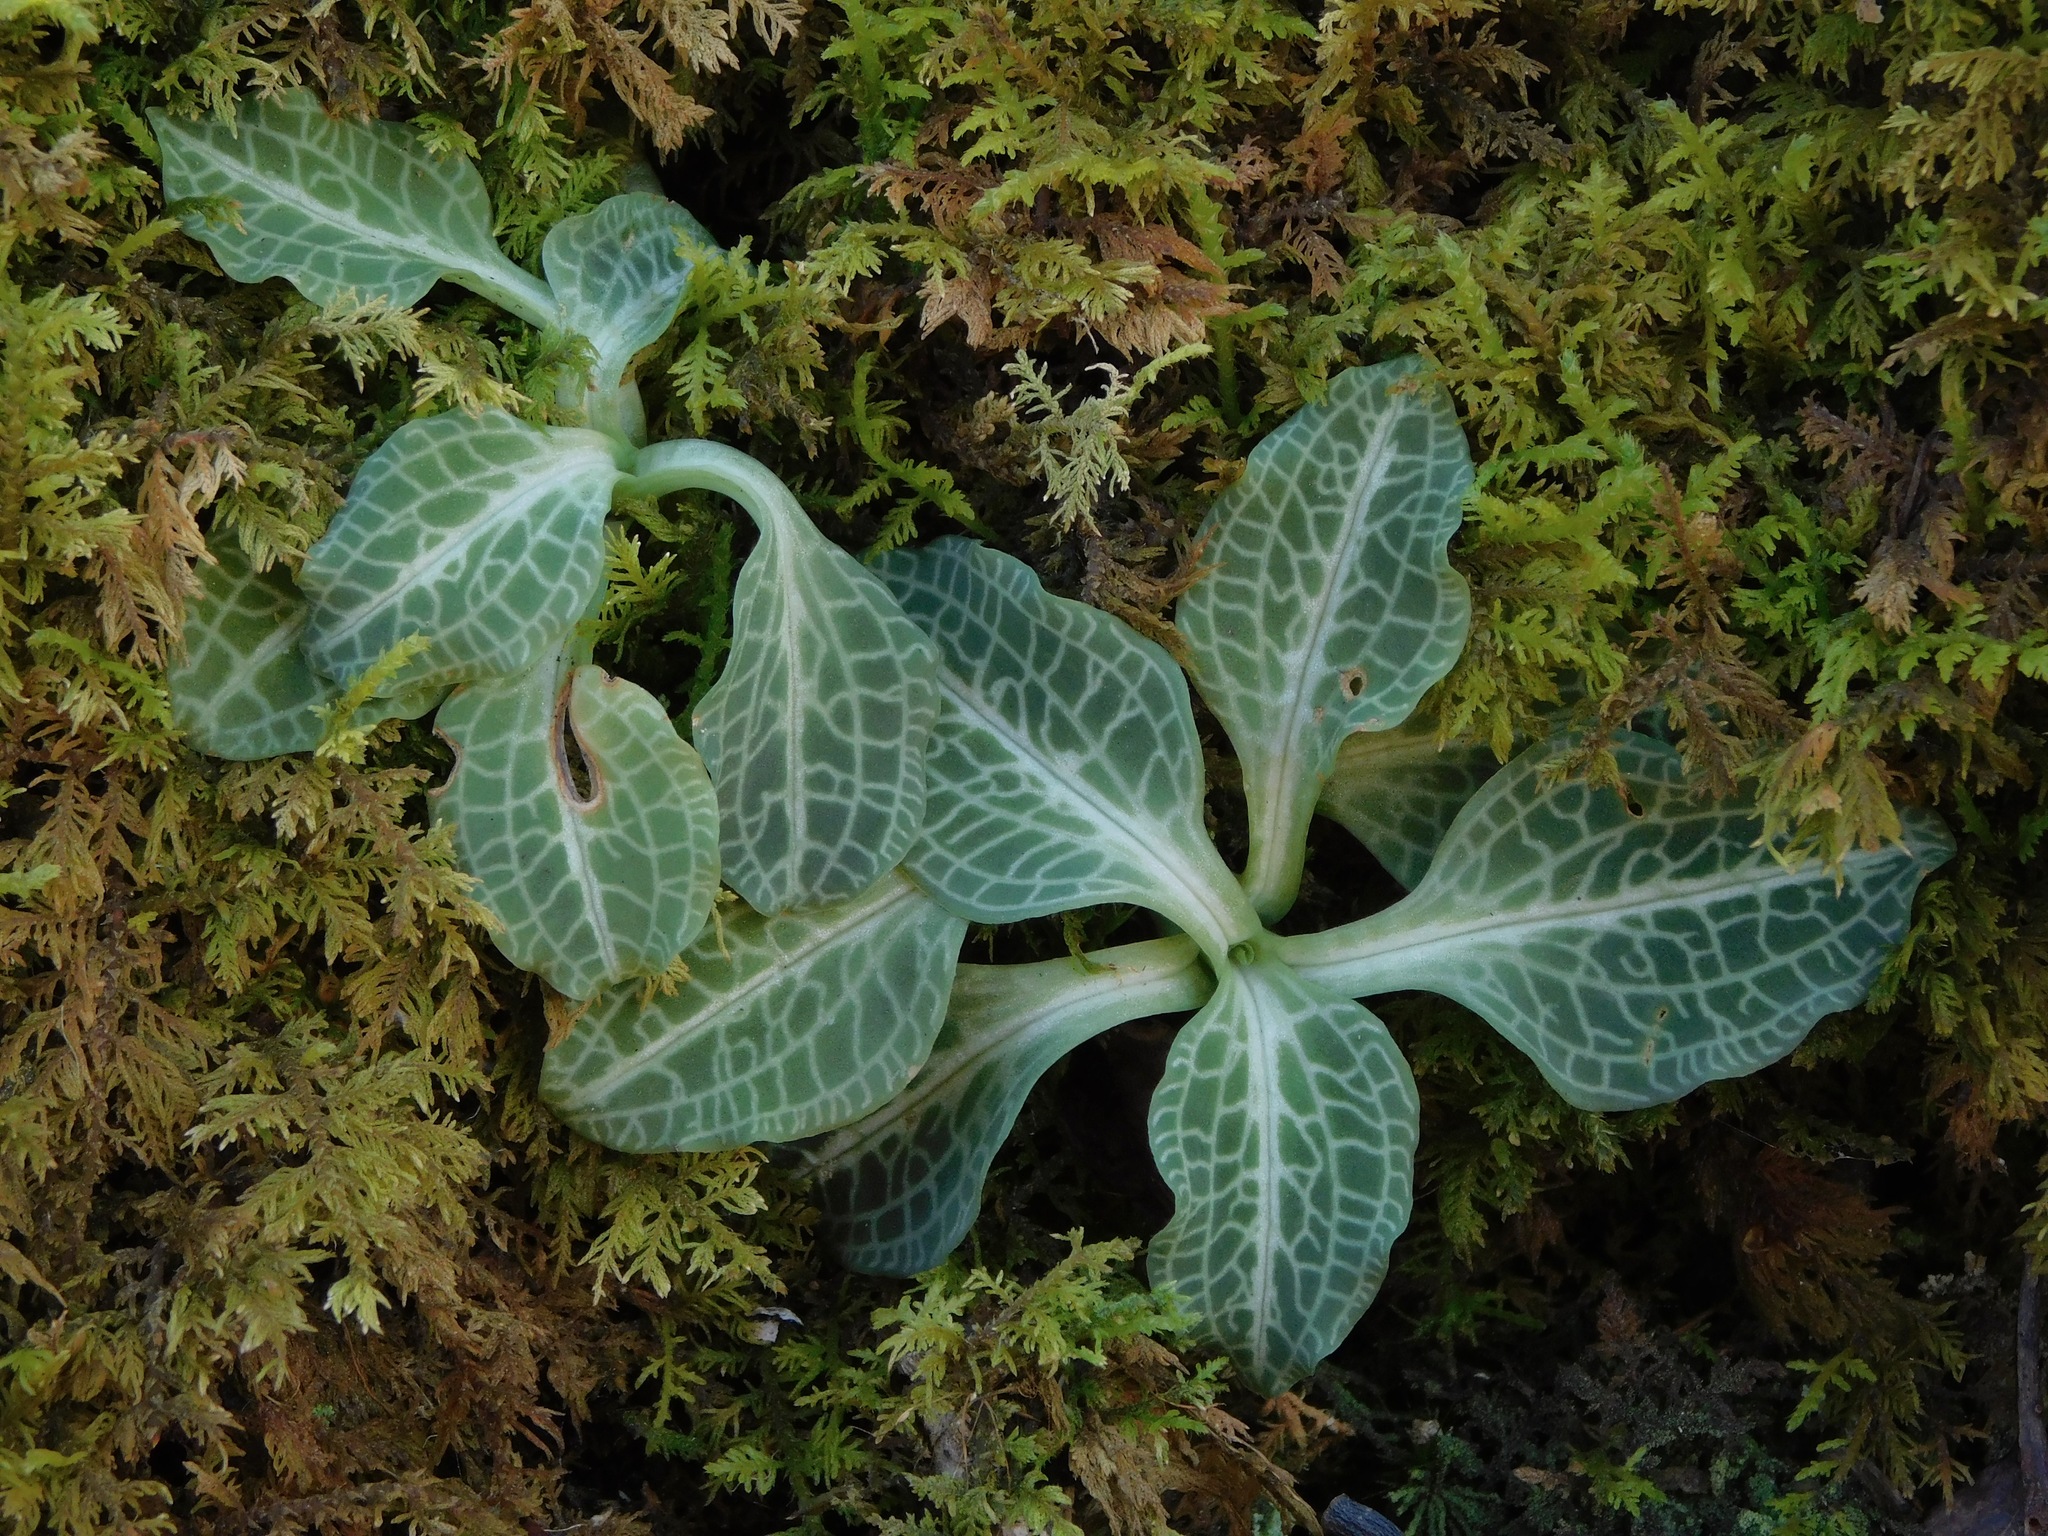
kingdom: Plantae
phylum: Tracheophyta
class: Liliopsida
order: Asparagales
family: Orchidaceae
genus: Goodyera
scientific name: Goodyera pubescens
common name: Downy rattlesnake-plantain
